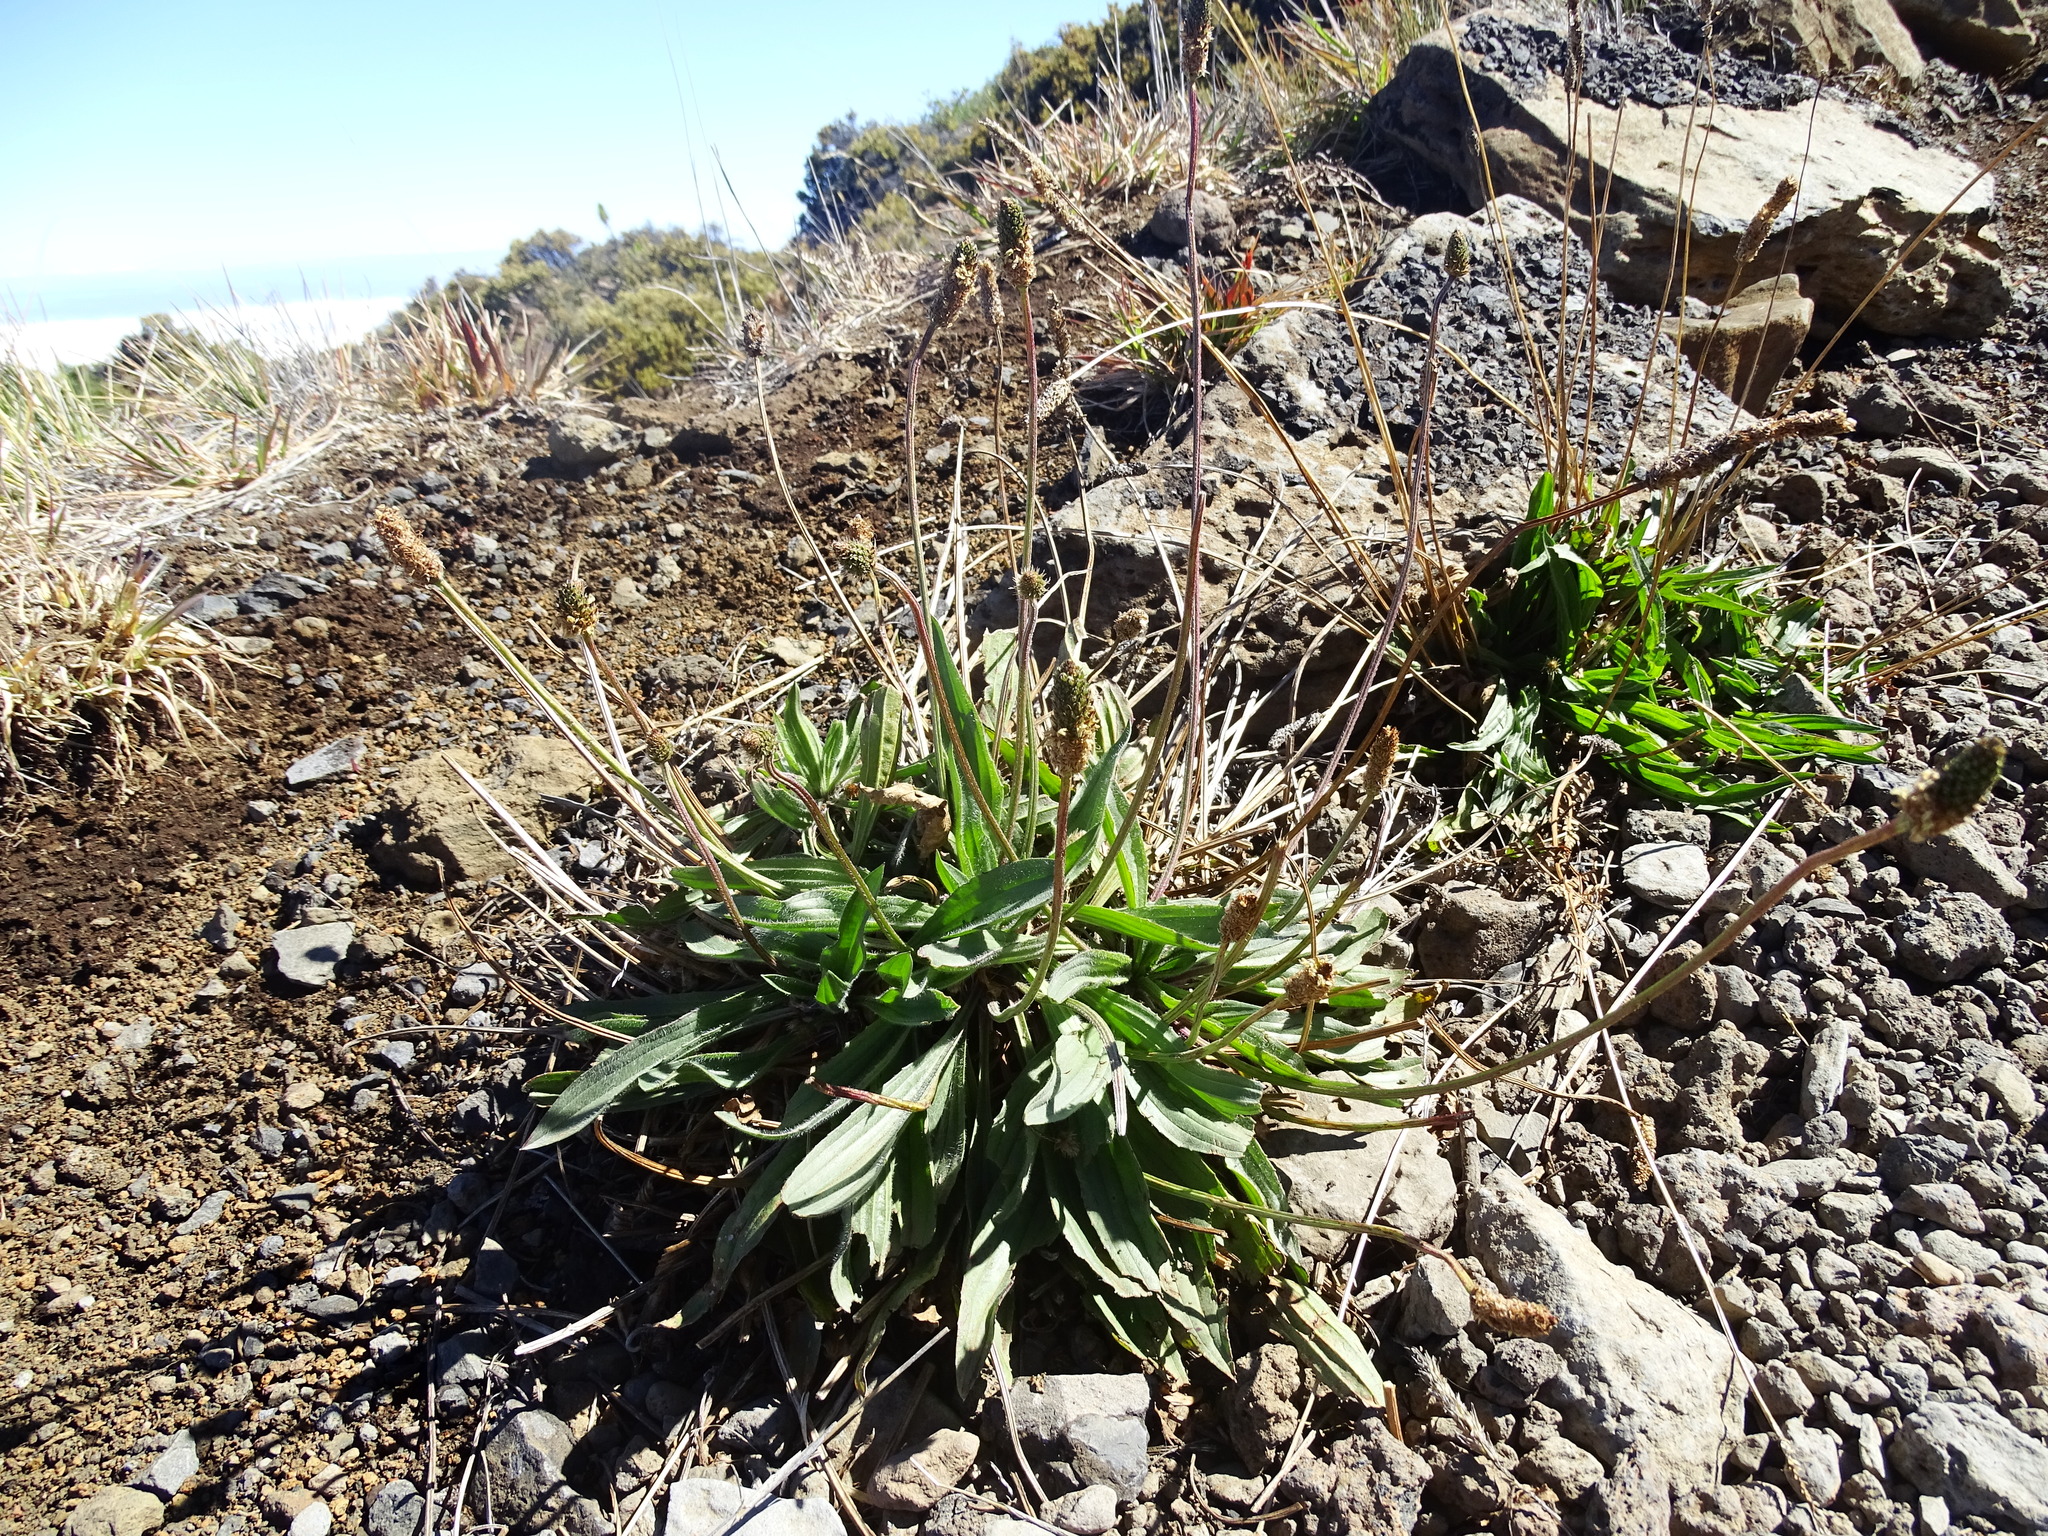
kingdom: Plantae
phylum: Tracheophyta
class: Magnoliopsida
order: Lamiales
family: Plantaginaceae
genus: Plantago
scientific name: Plantago lanceolata
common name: Ribwort plantain
